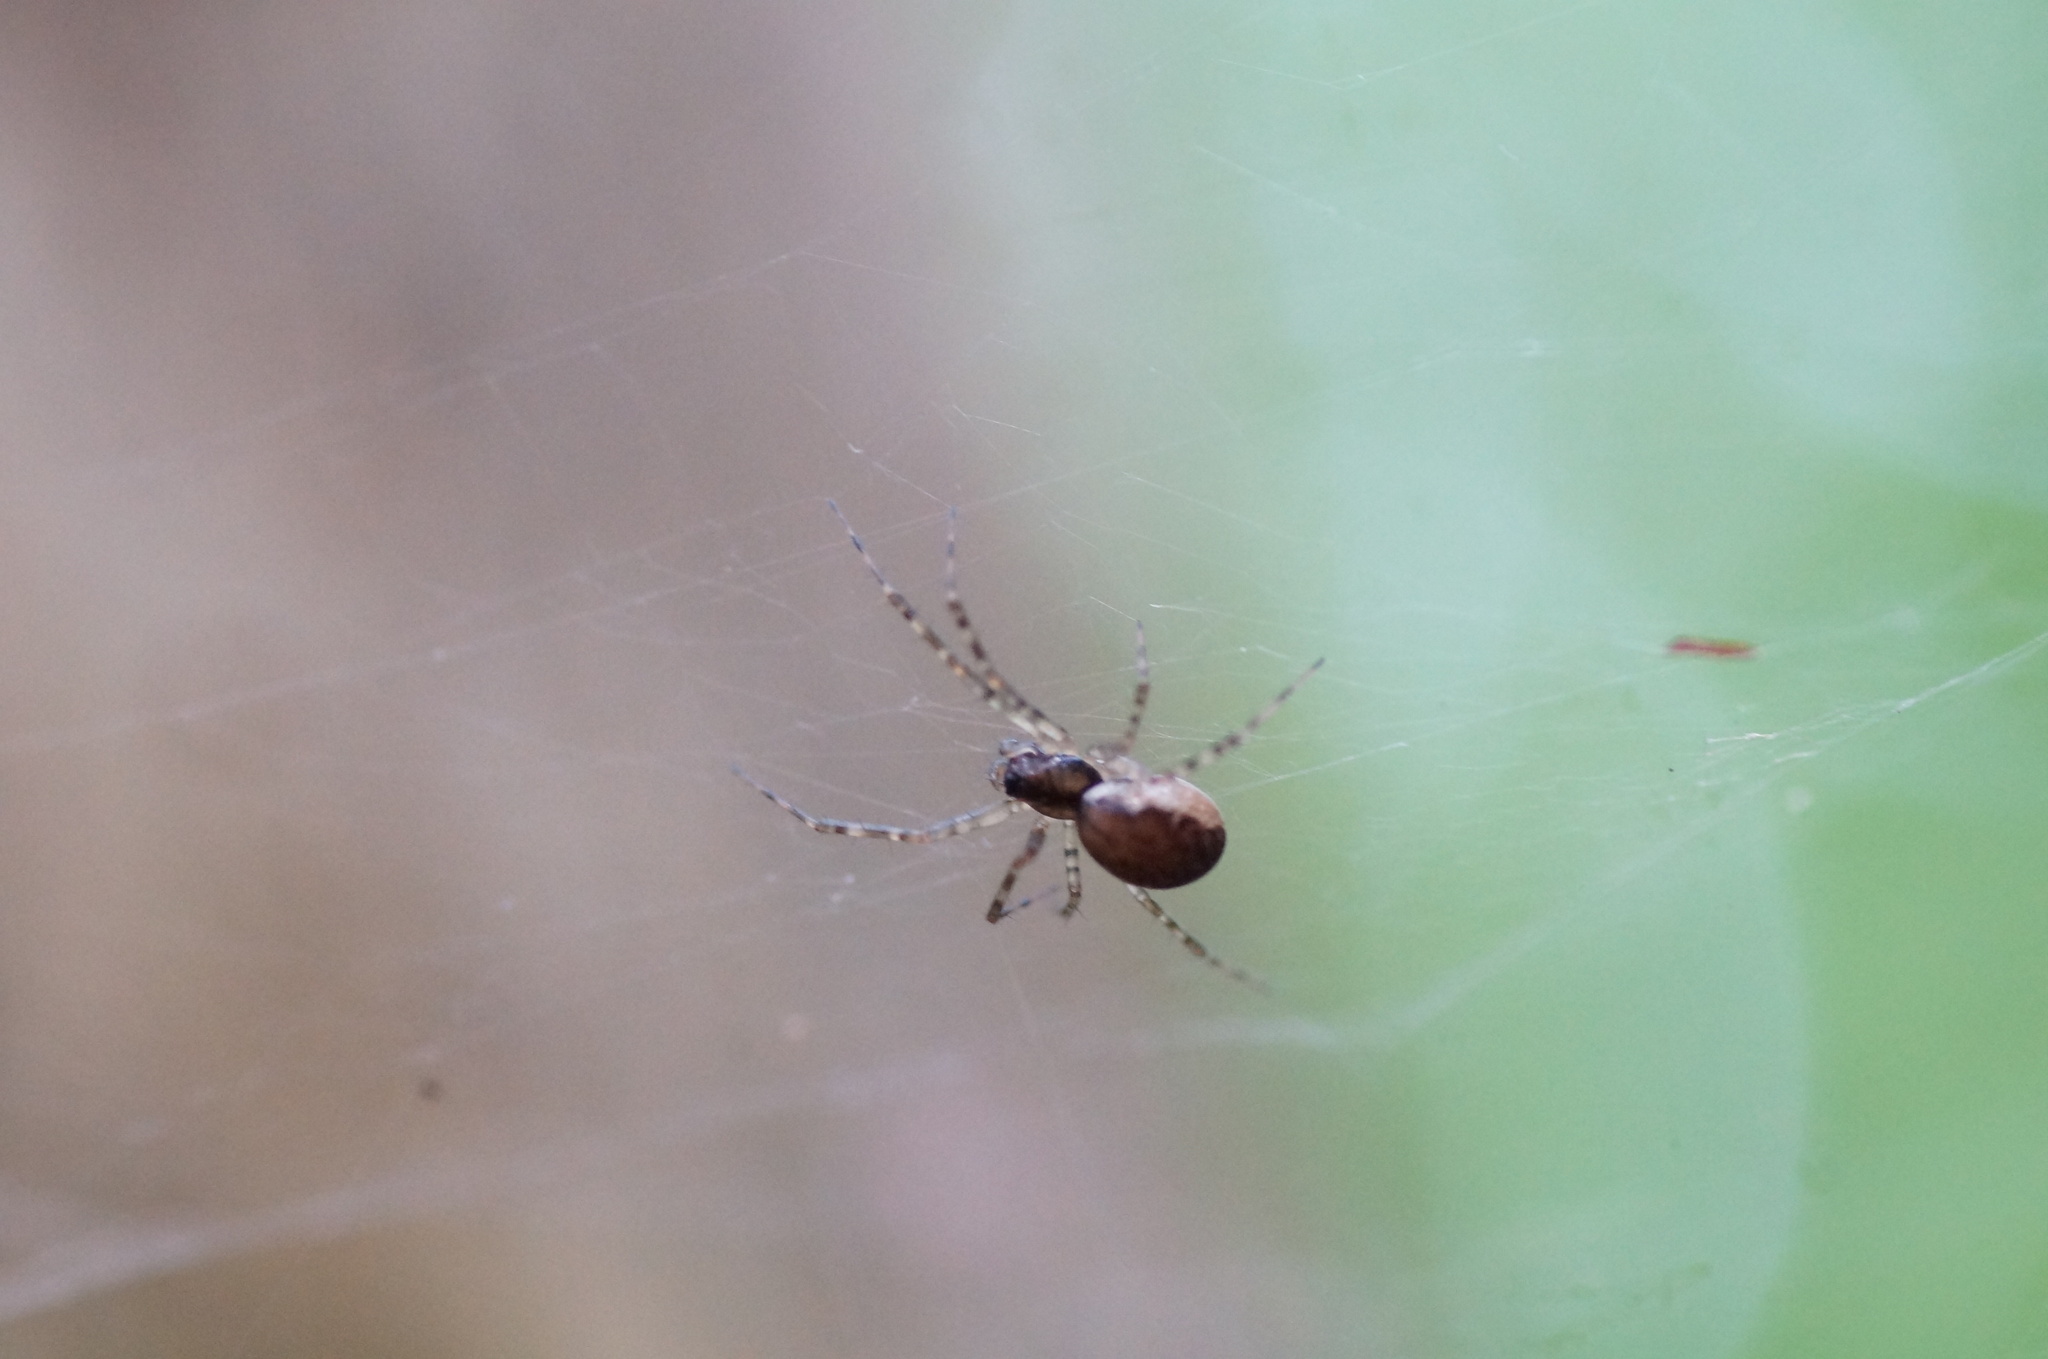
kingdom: Animalia
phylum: Arthropoda
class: Arachnida
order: Araneae
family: Linyphiidae
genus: Neriene
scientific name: Neriene montana
